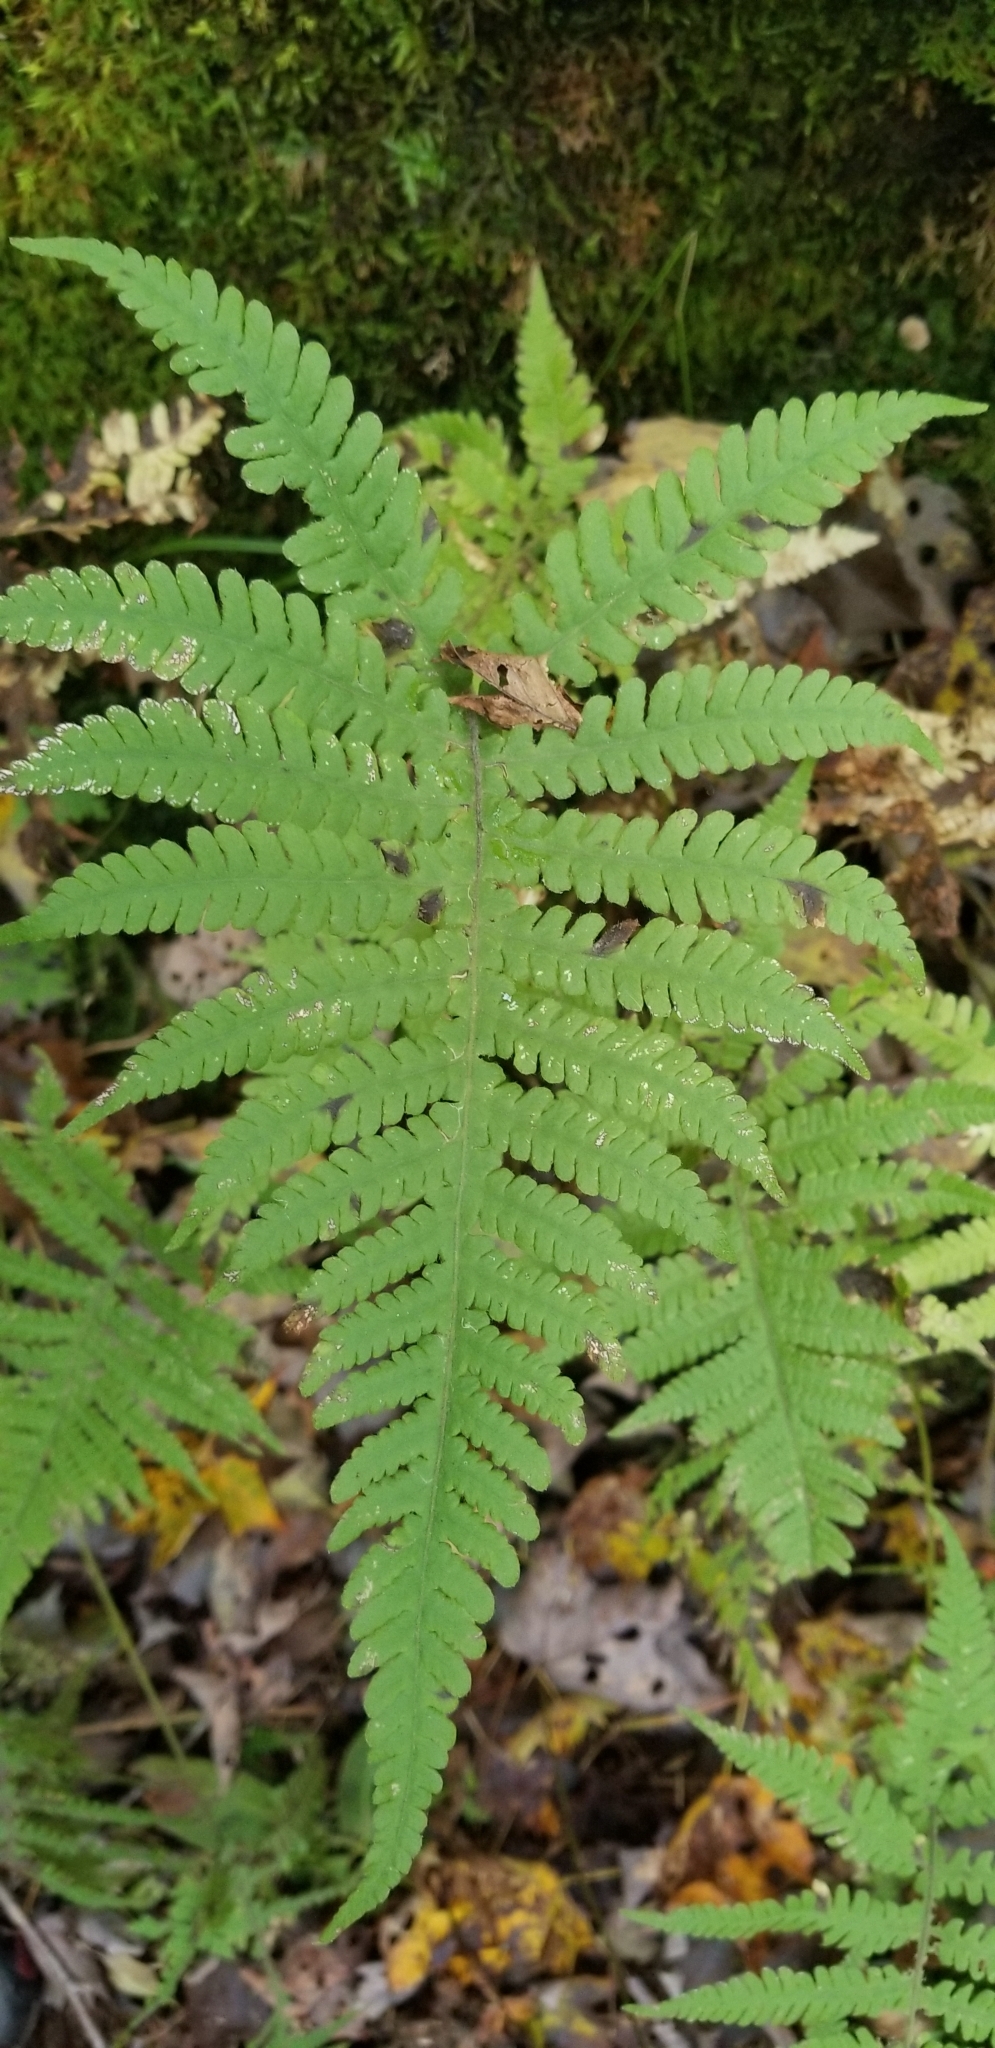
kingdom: Plantae
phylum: Tracheophyta
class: Polypodiopsida
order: Polypodiales
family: Thelypteridaceae
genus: Phegopteris
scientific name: Phegopteris connectilis
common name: Beech fern
